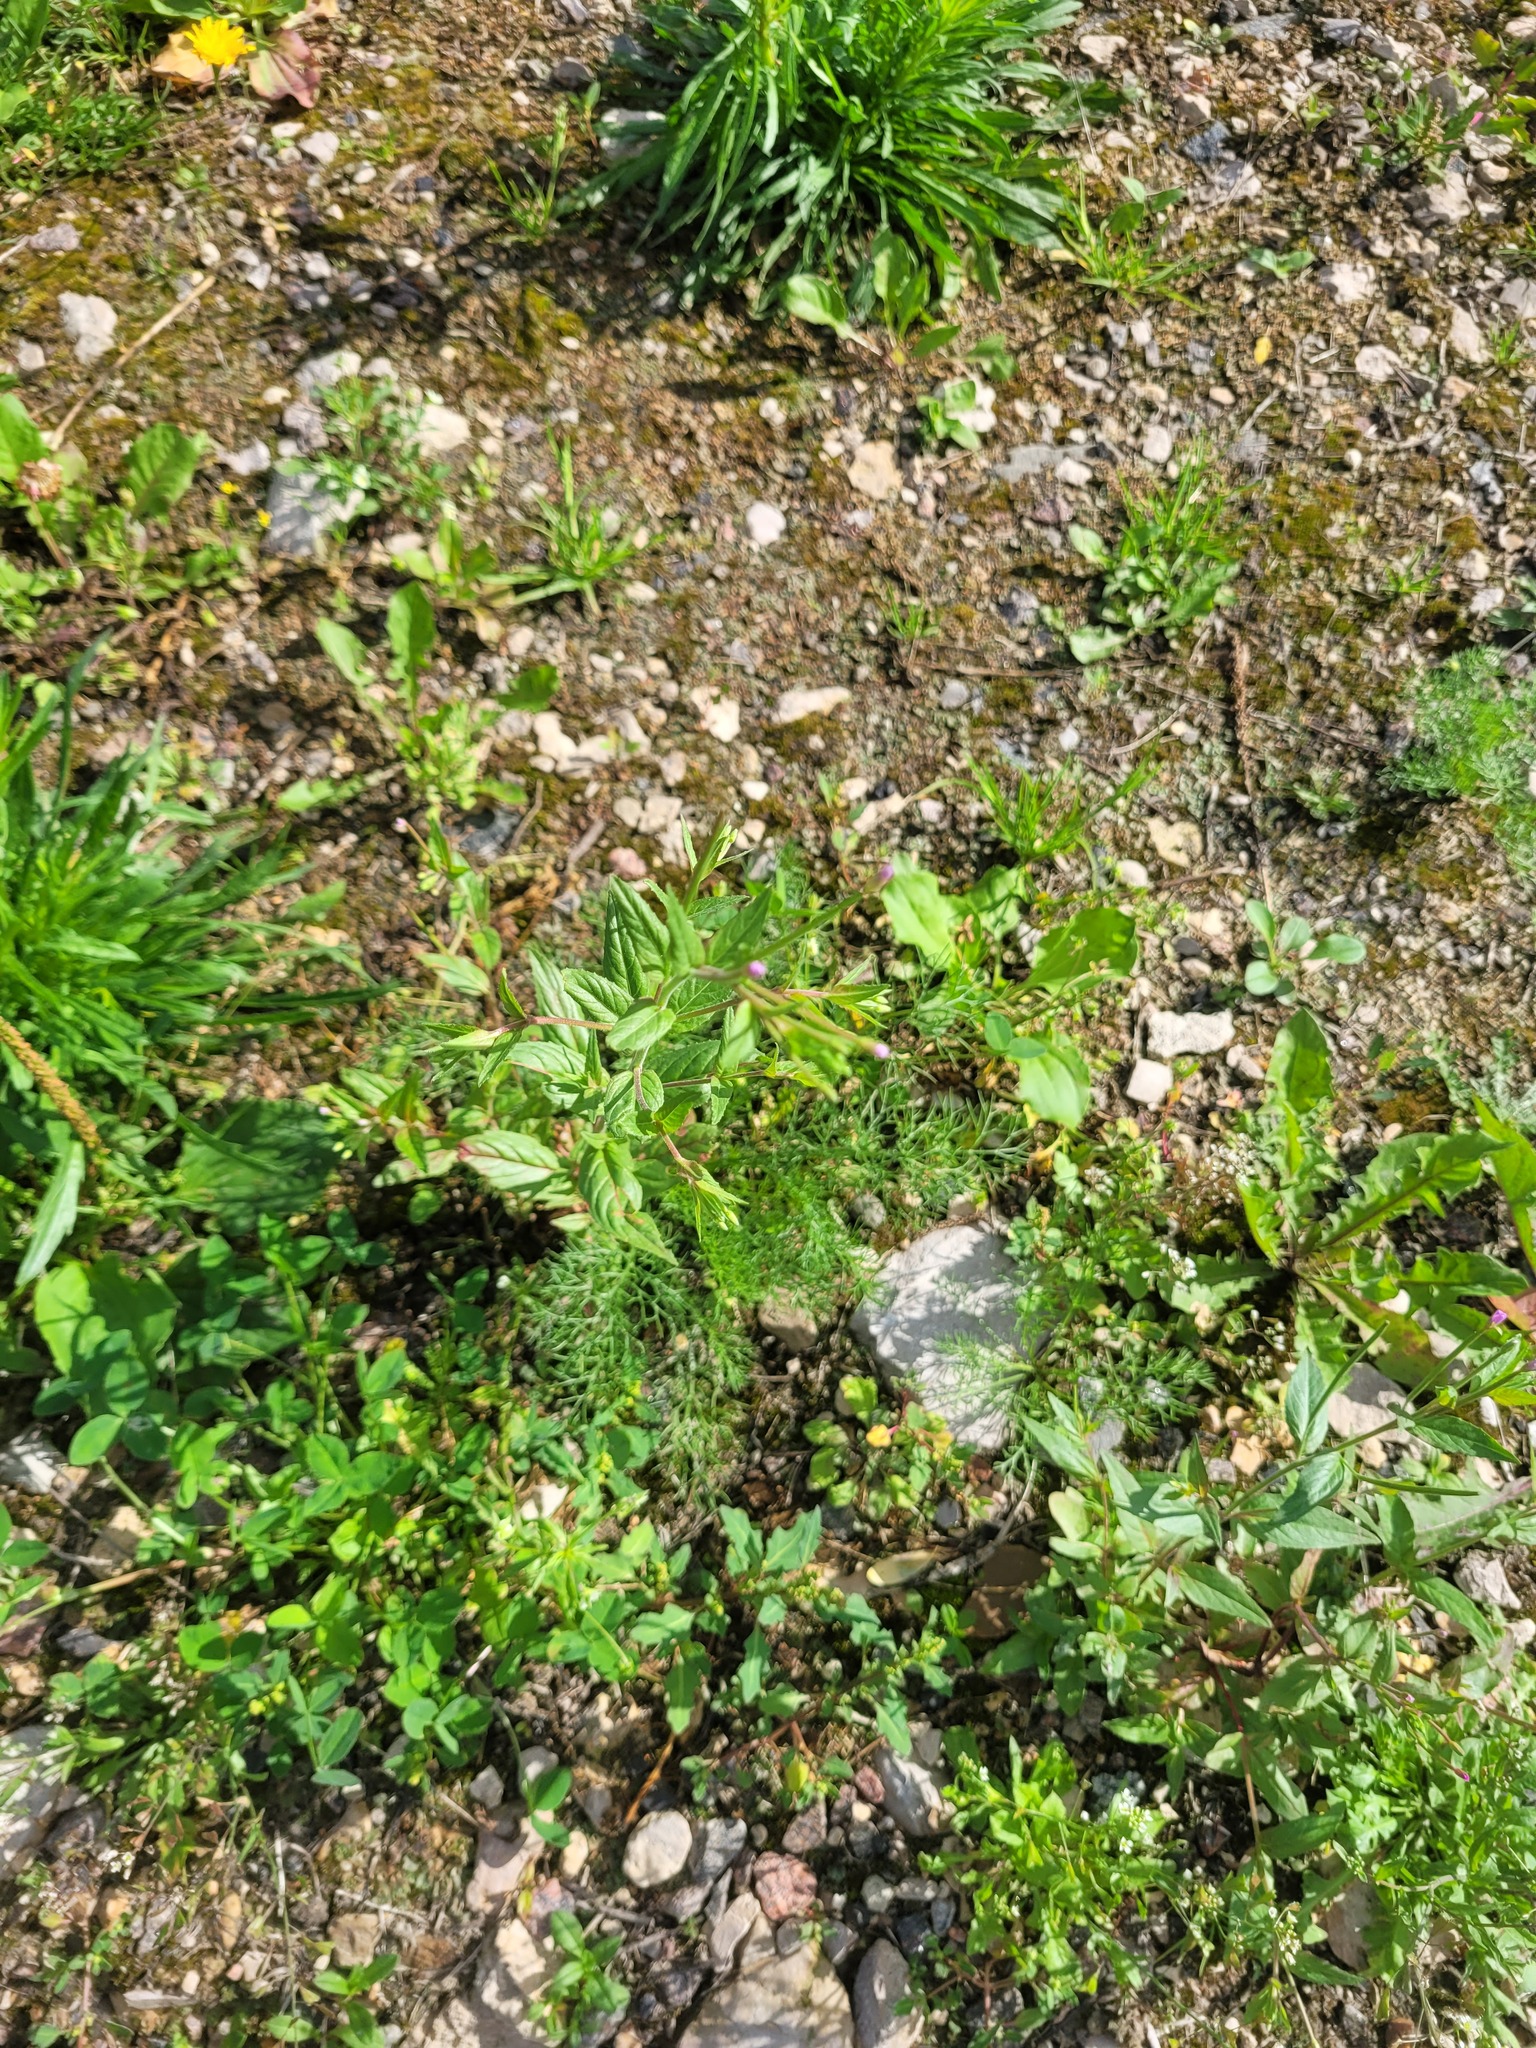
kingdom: Plantae
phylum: Tracheophyta
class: Magnoliopsida
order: Myrtales
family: Onagraceae
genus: Epilobium
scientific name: Epilobium ciliatum
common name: American willowherb
